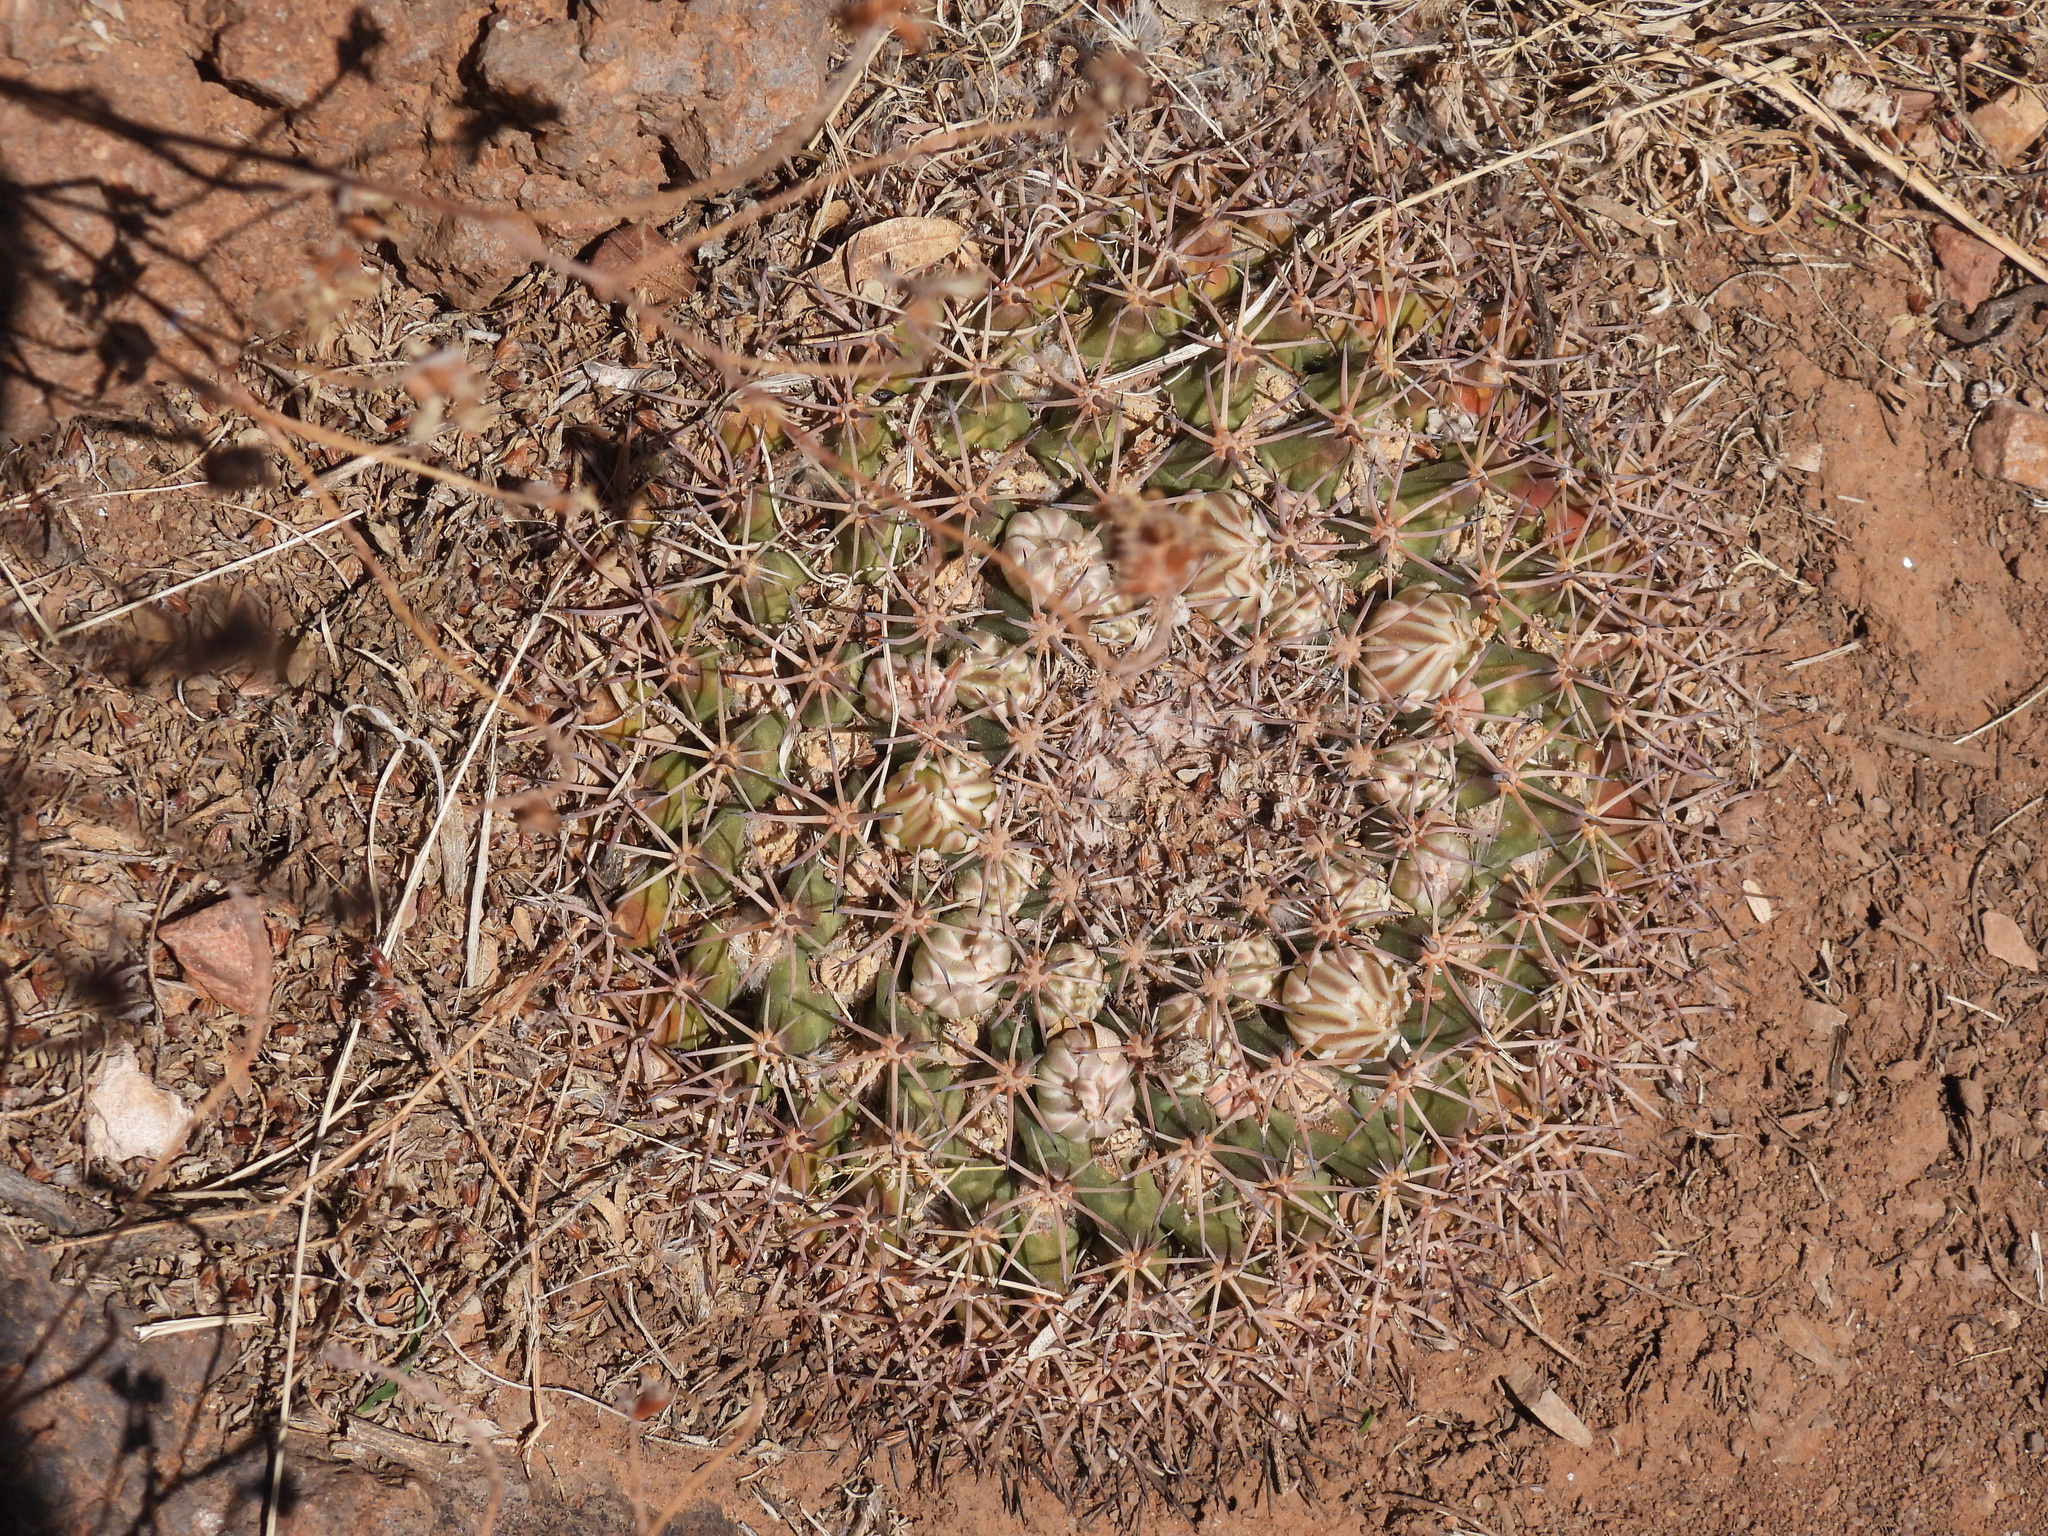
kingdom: Plantae
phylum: Tracheophyta
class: Magnoliopsida
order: Caryophyllales
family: Cactaceae
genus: Mammillaria
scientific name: Mammillaria heyderi
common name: Little nipple cactus
